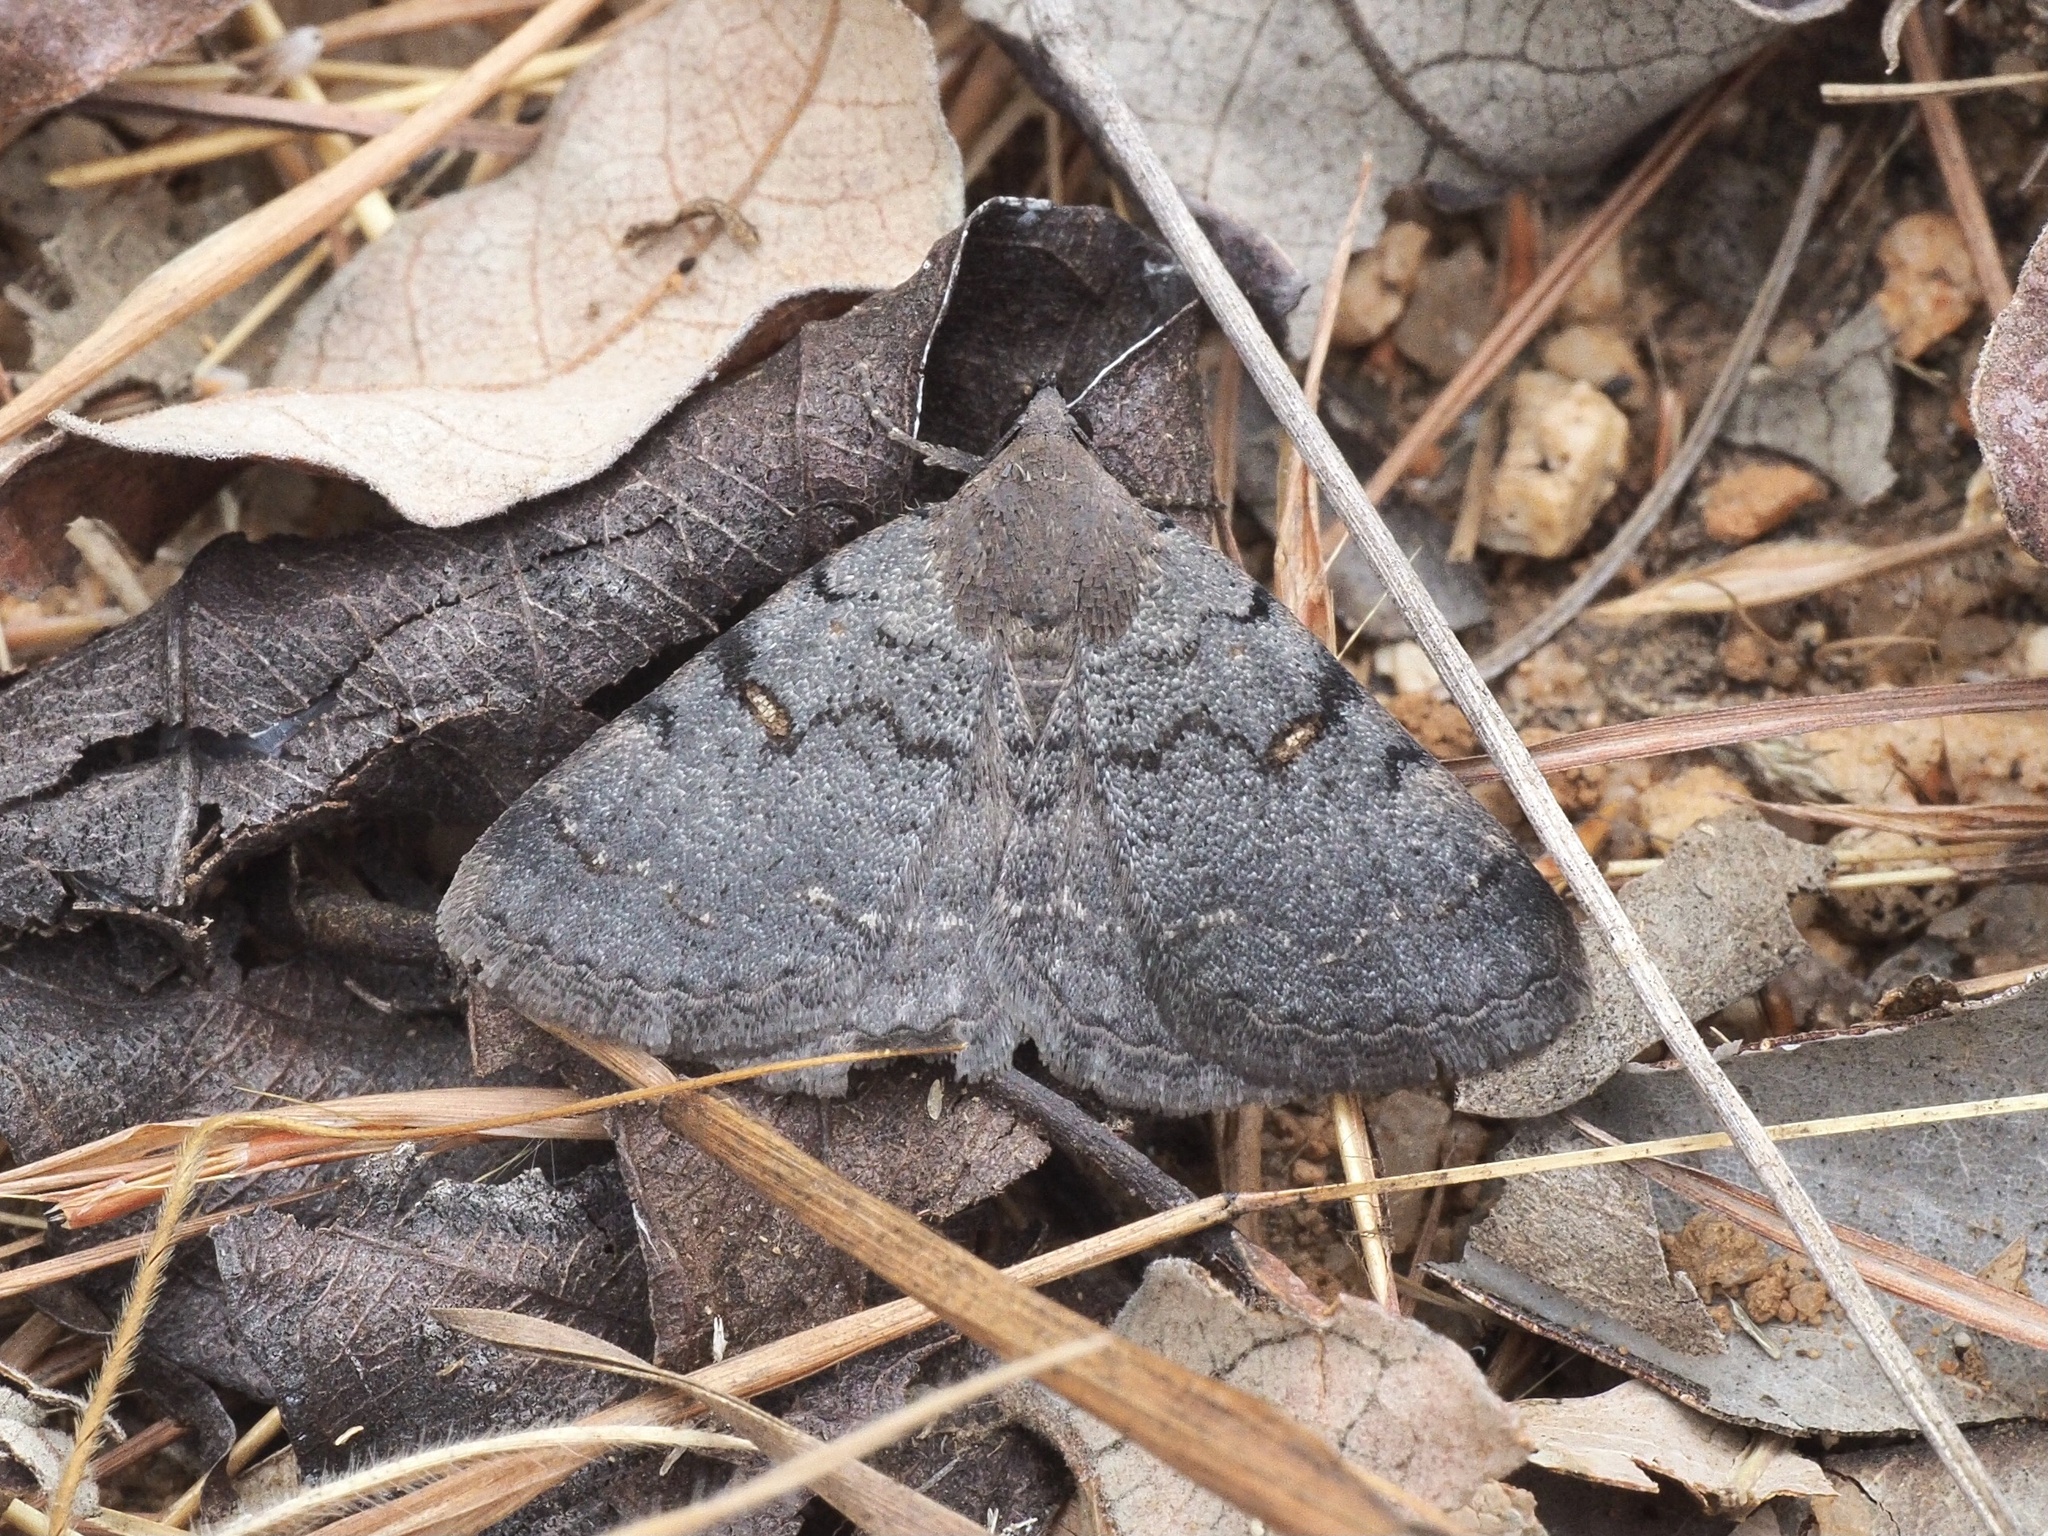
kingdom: Animalia
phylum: Arthropoda
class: Insecta
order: Lepidoptera
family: Erebidae
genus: Acantholipes
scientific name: Acantholipes namacensis
